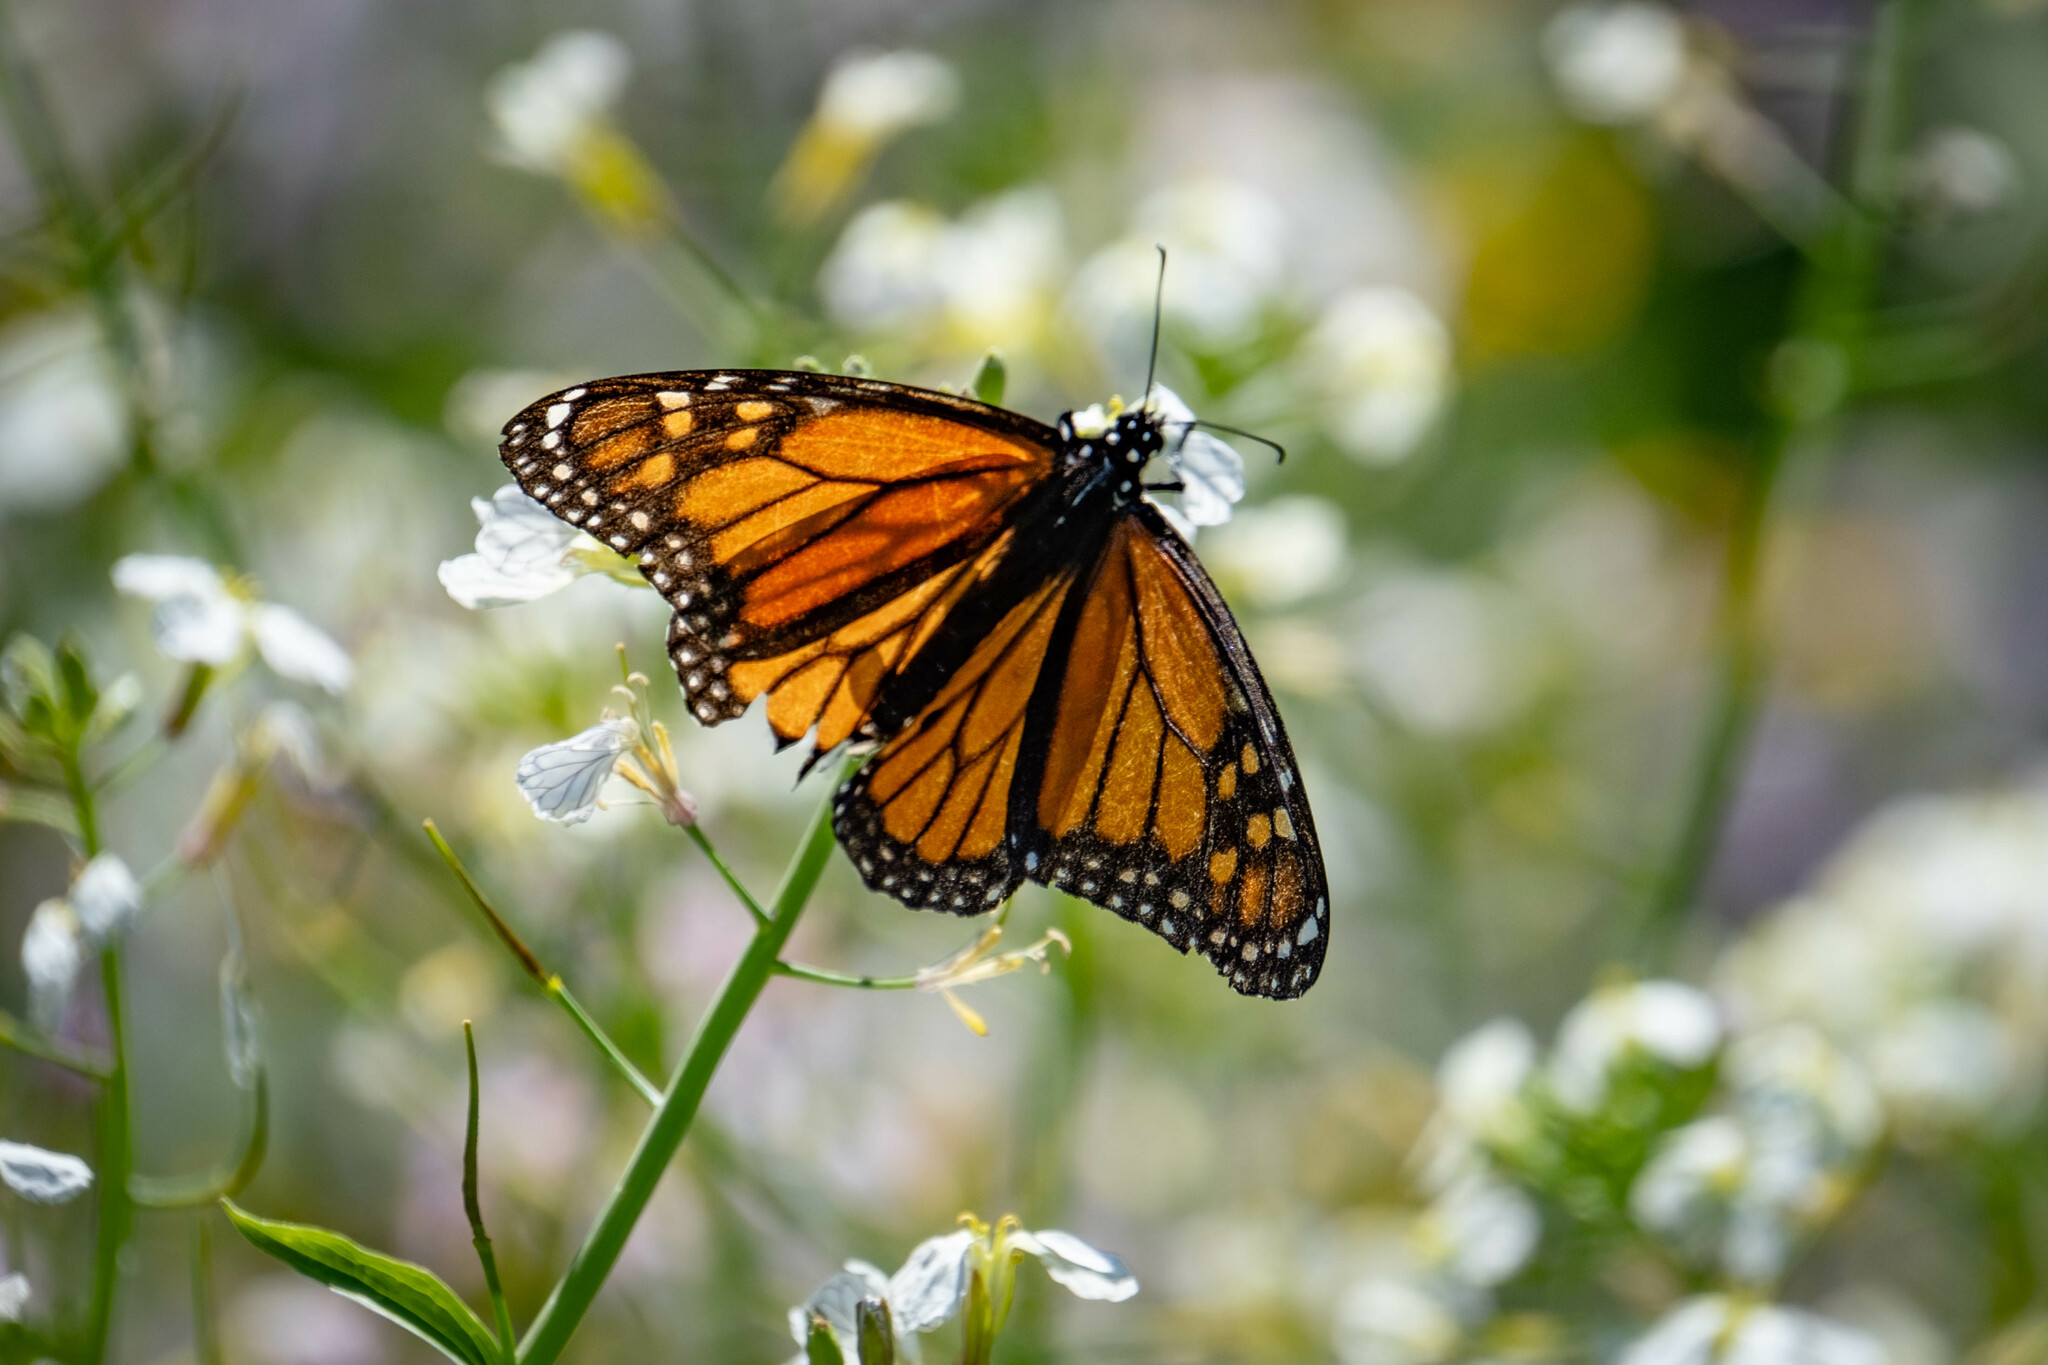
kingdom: Animalia
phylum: Arthropoda
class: Insecta
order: Lepidoptera
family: Nymphalidae
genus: Danaus
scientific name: Danaus plexippus
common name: Monarch
